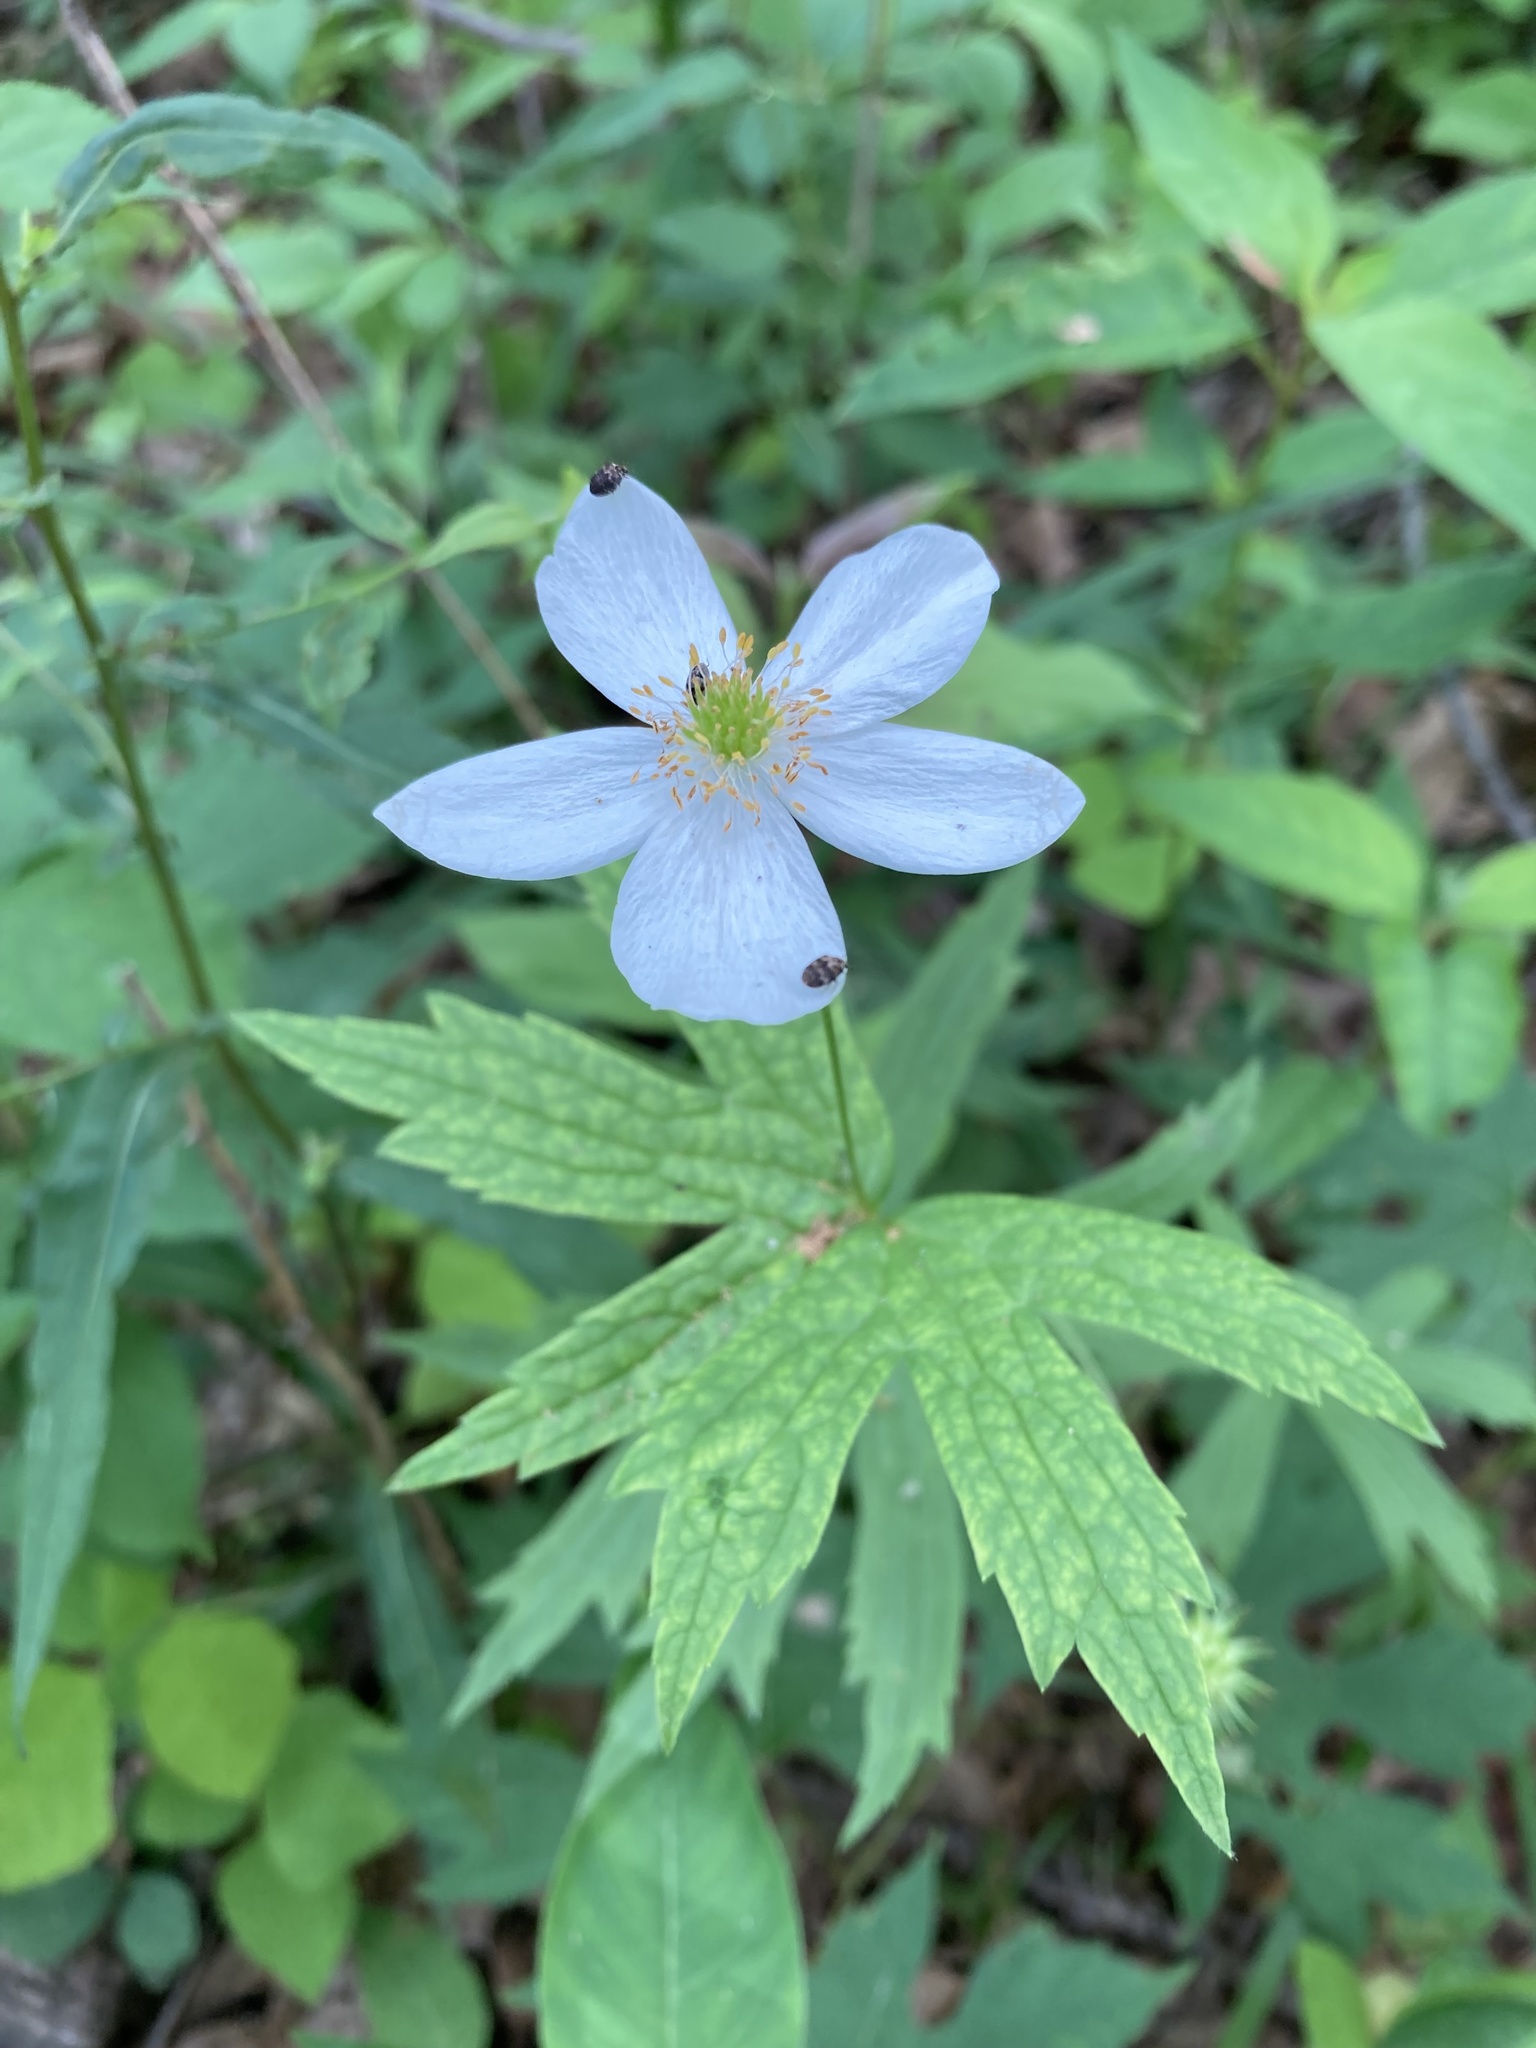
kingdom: Plantae
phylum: Tracheophyta
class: Magnoliopsida
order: Ranunculales
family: Ranunculaceae
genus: Anemonastrum
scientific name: Anemonastrum canadense
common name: Canada anemone
